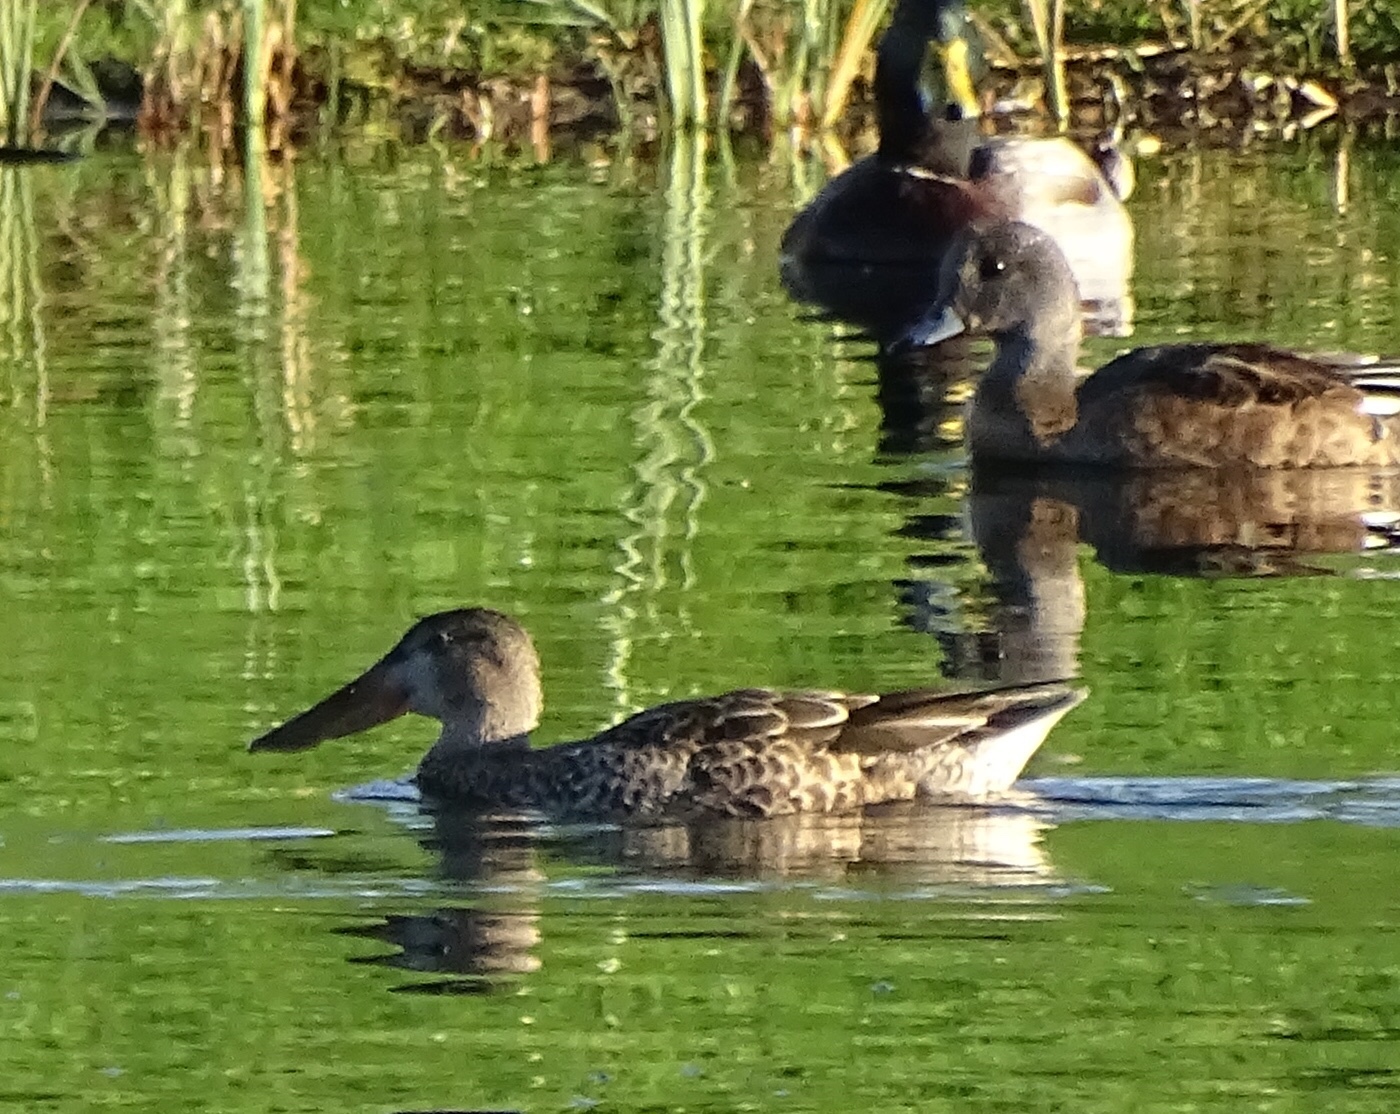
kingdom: Animalia
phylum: Chordata
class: Aves
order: Anseriformes
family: Anatidae
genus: Spatula
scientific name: Spatula clypeata
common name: Northern shoveler
